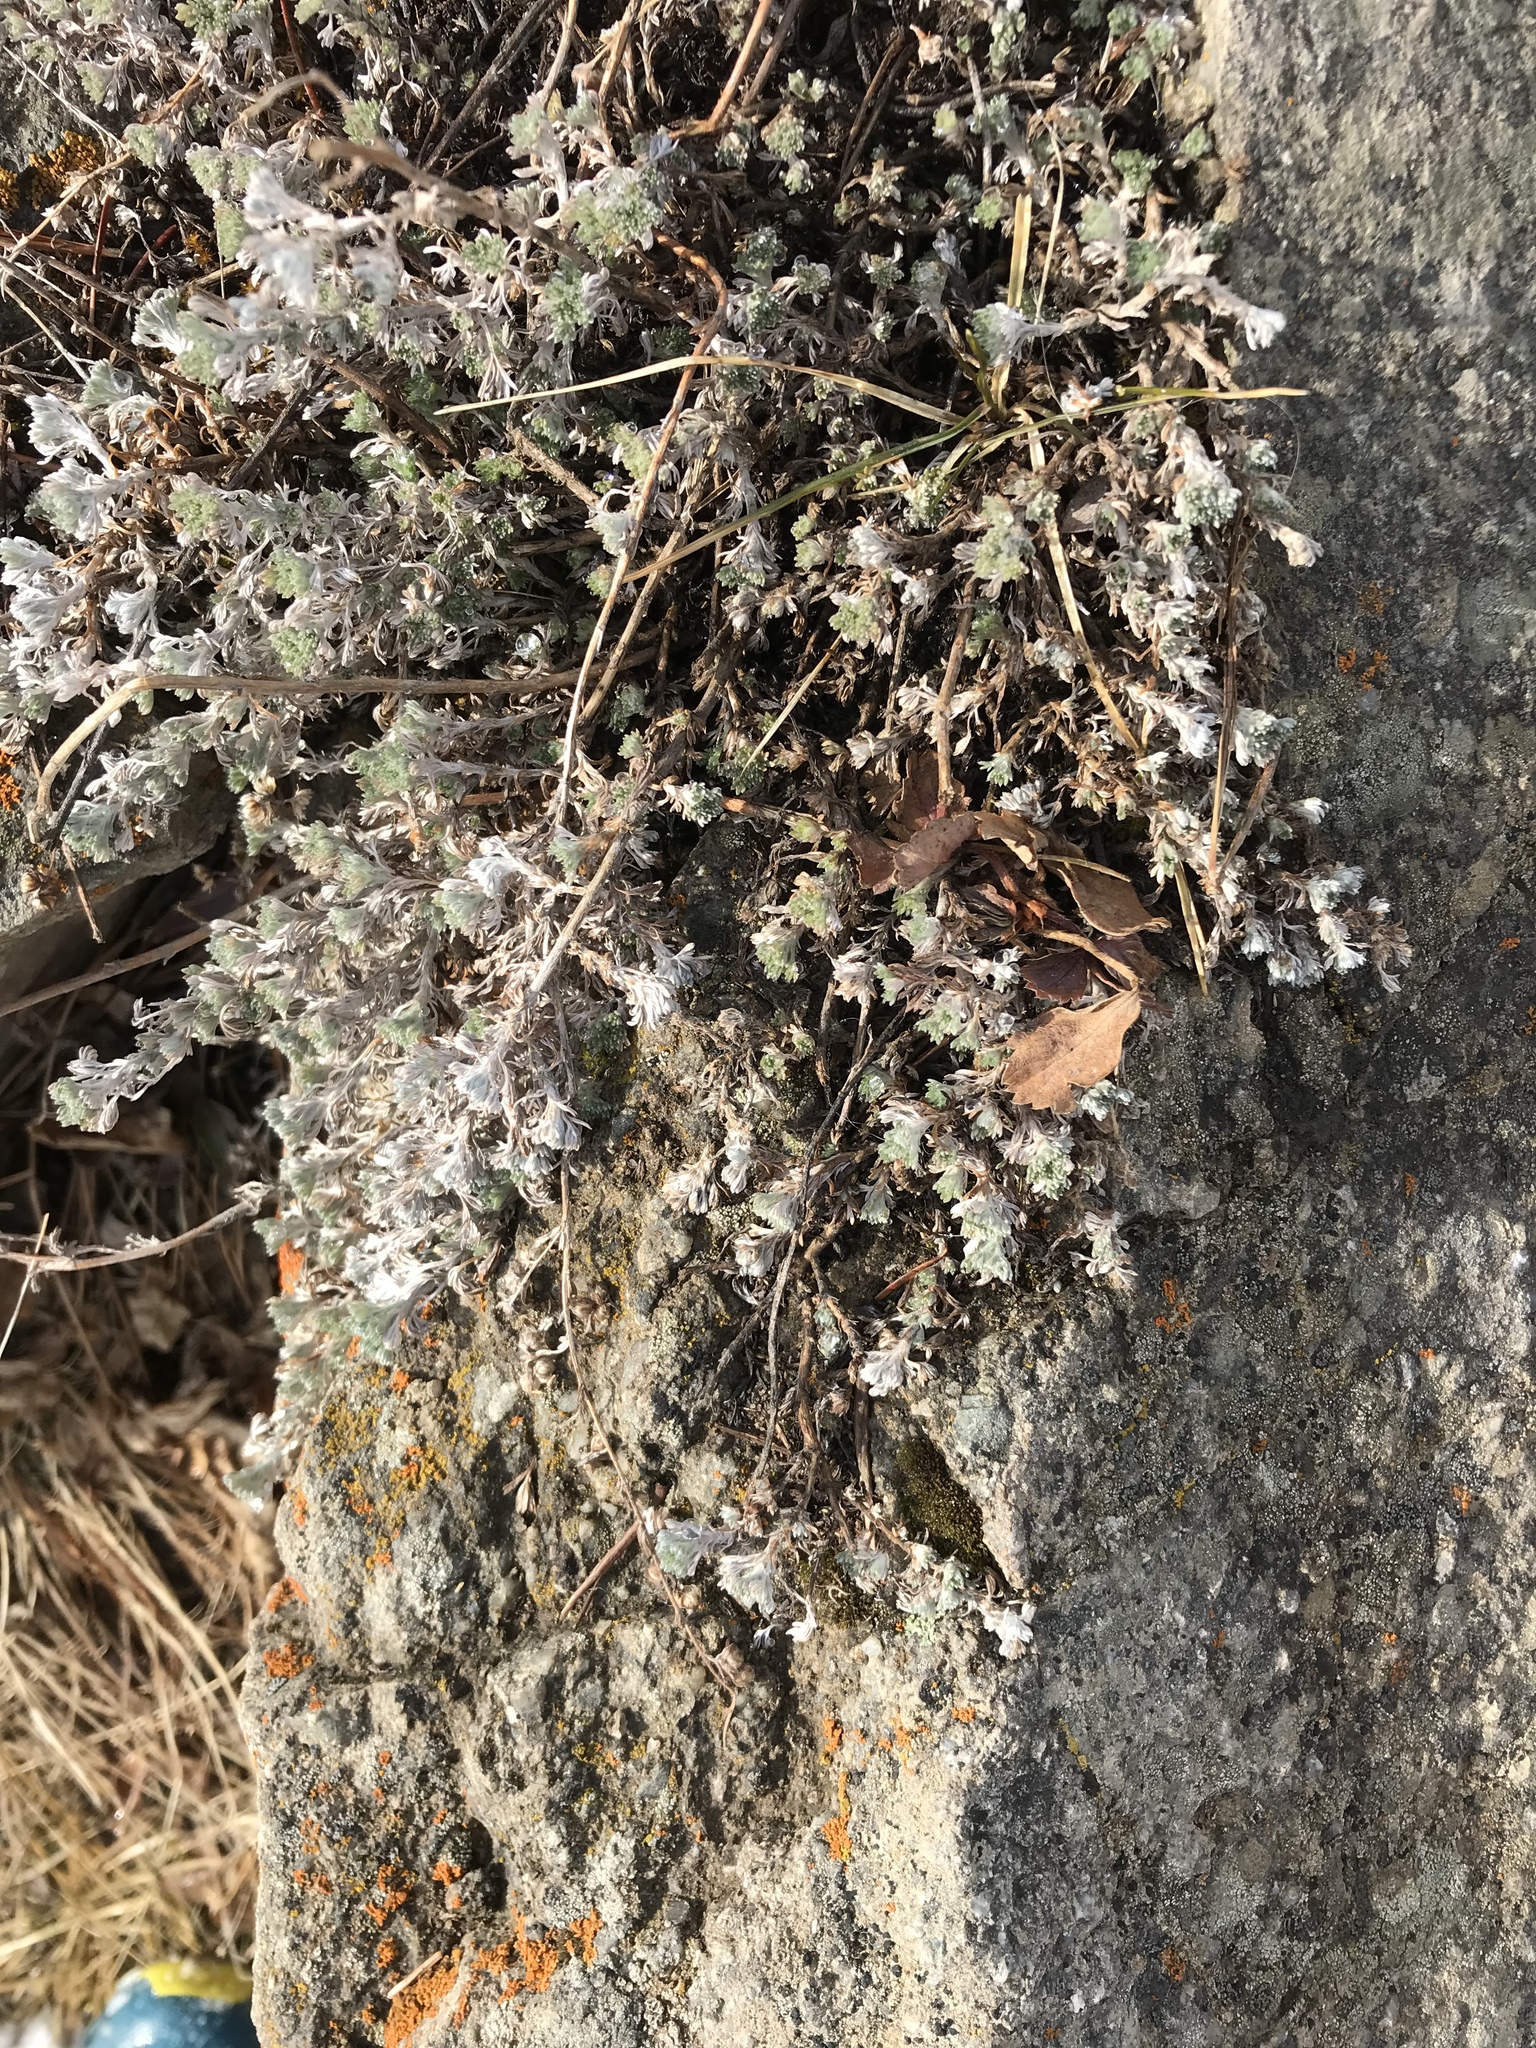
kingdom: Plantae
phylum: Tracheophyta
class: Magnoliopsida
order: Asterales
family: Asteraceae
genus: Artemisia
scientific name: Artemisia frigida
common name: Prairie sagewort
